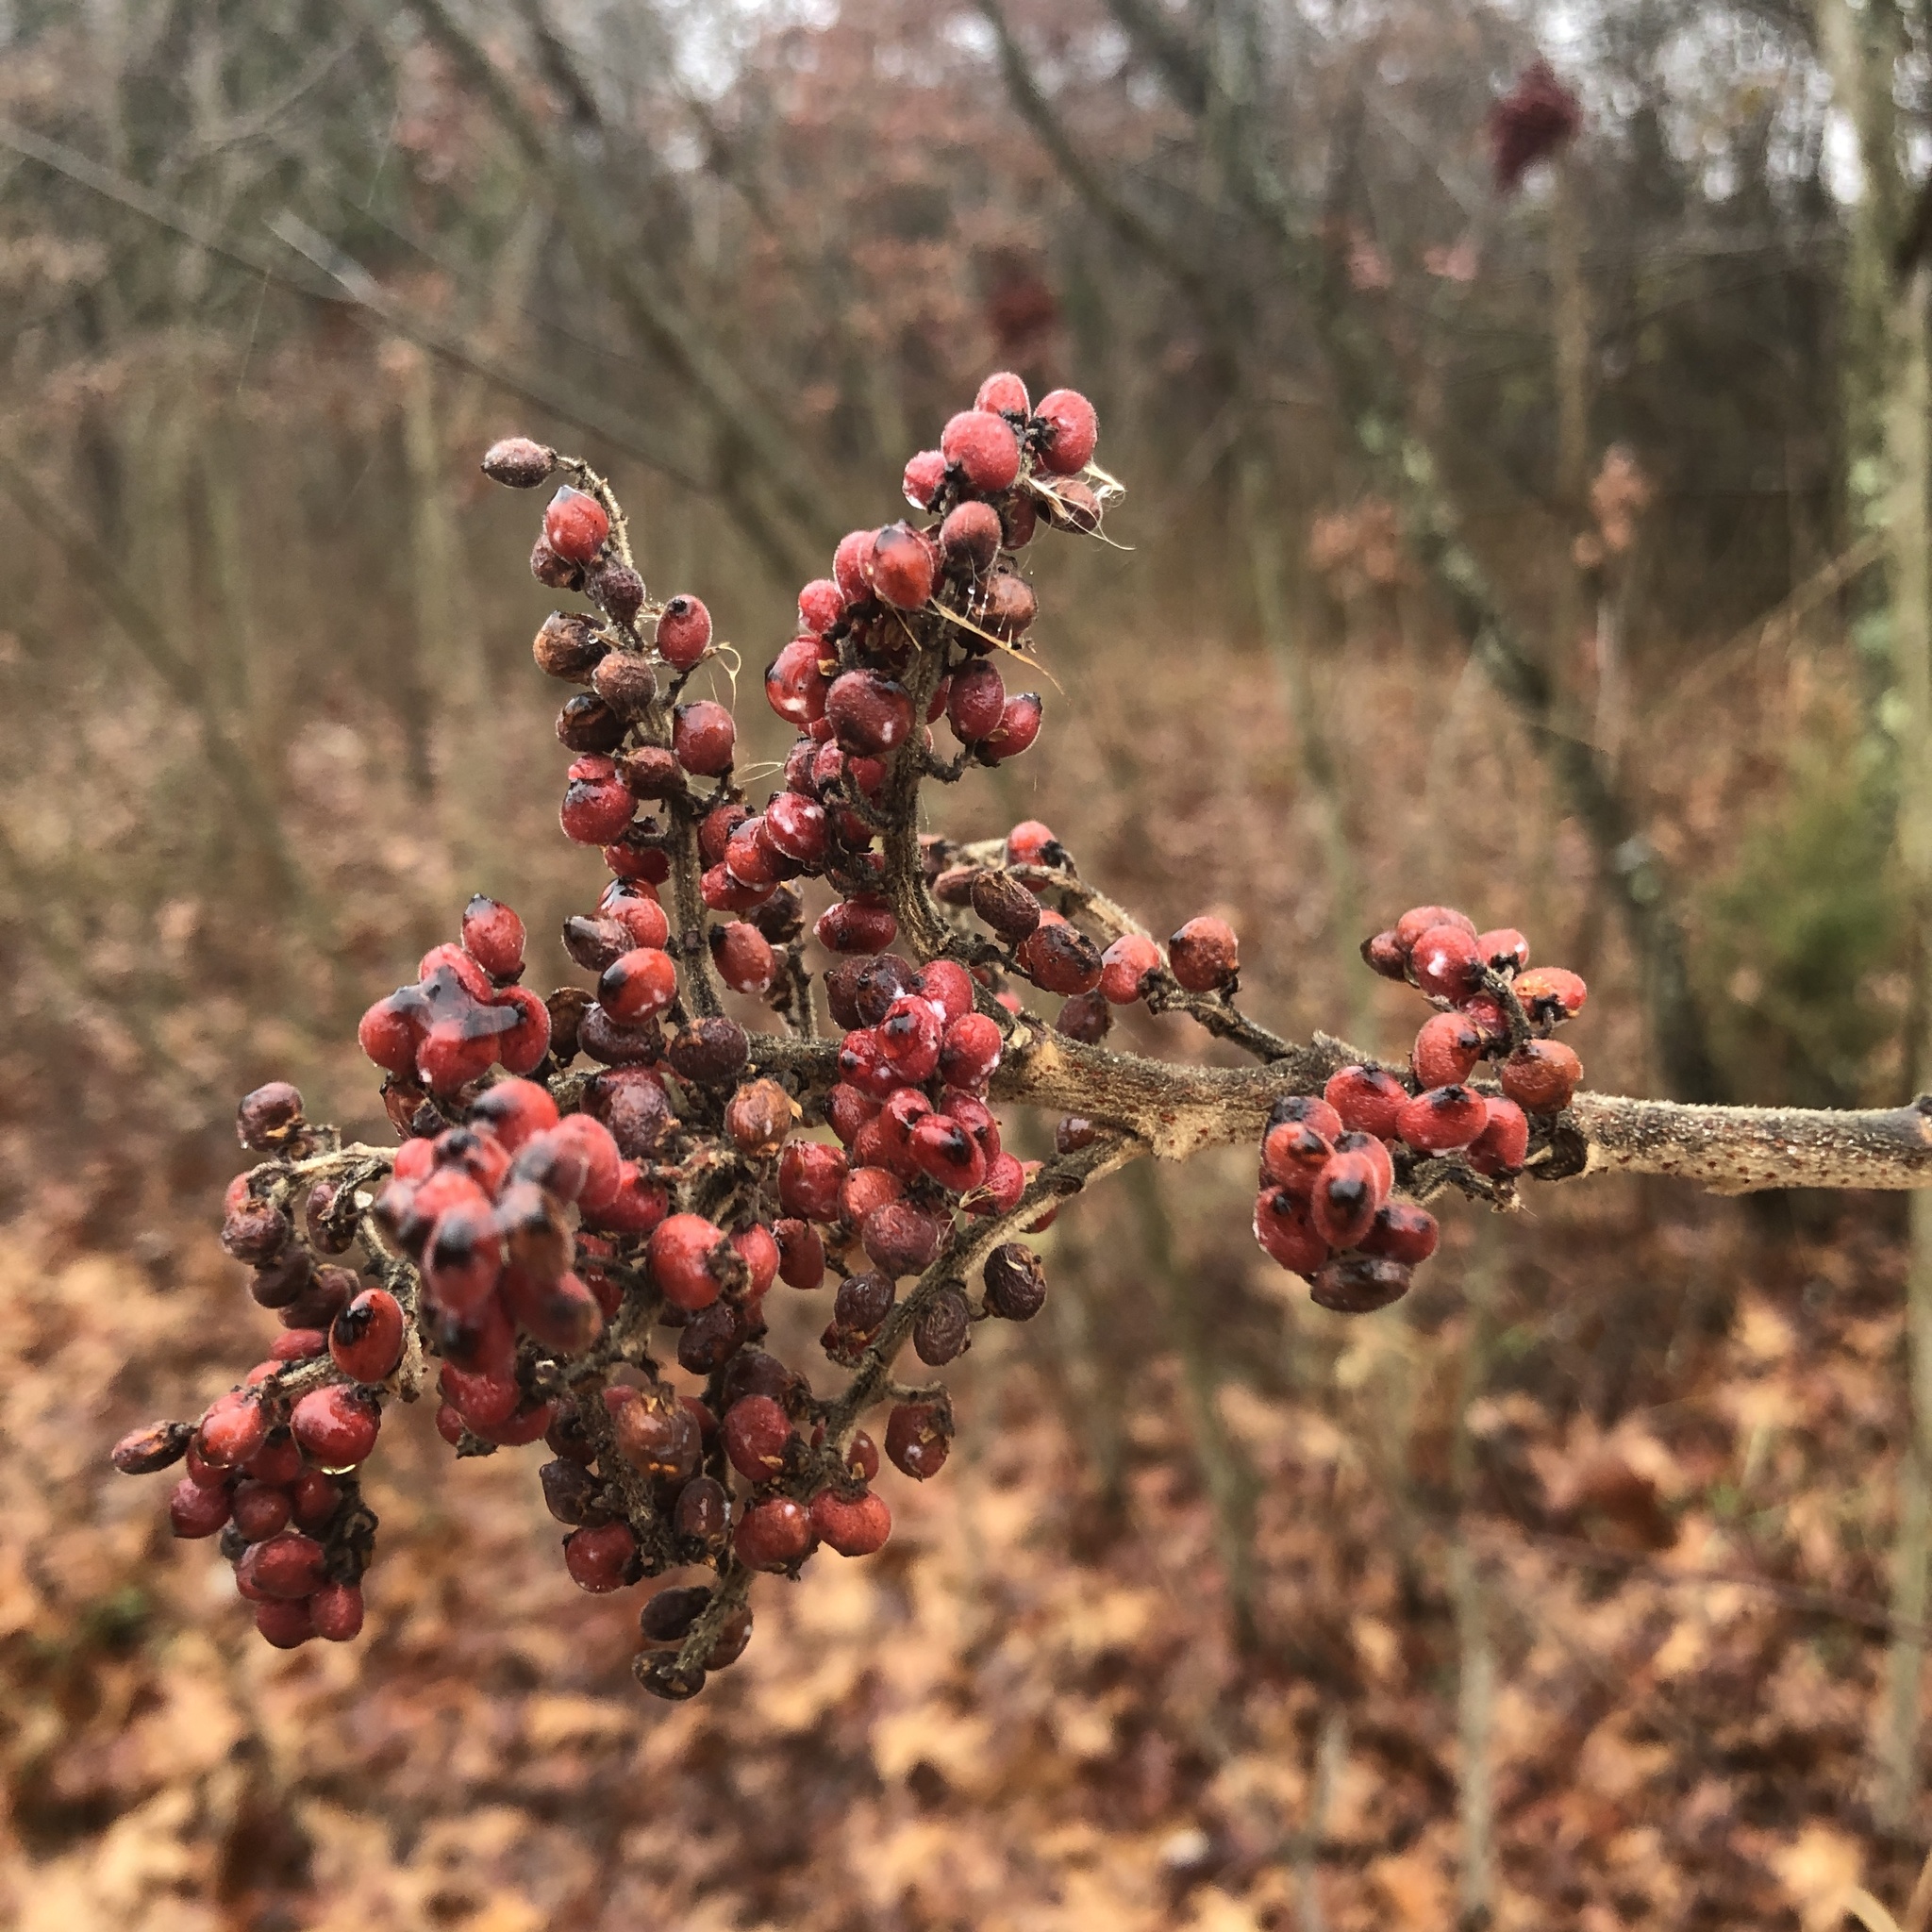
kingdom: Plantae
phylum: Tracheophyta
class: Magnoliopsida
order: Sapindales
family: Anacardiaceae
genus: Rhus
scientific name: Rhus copallina
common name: Shining sumac
